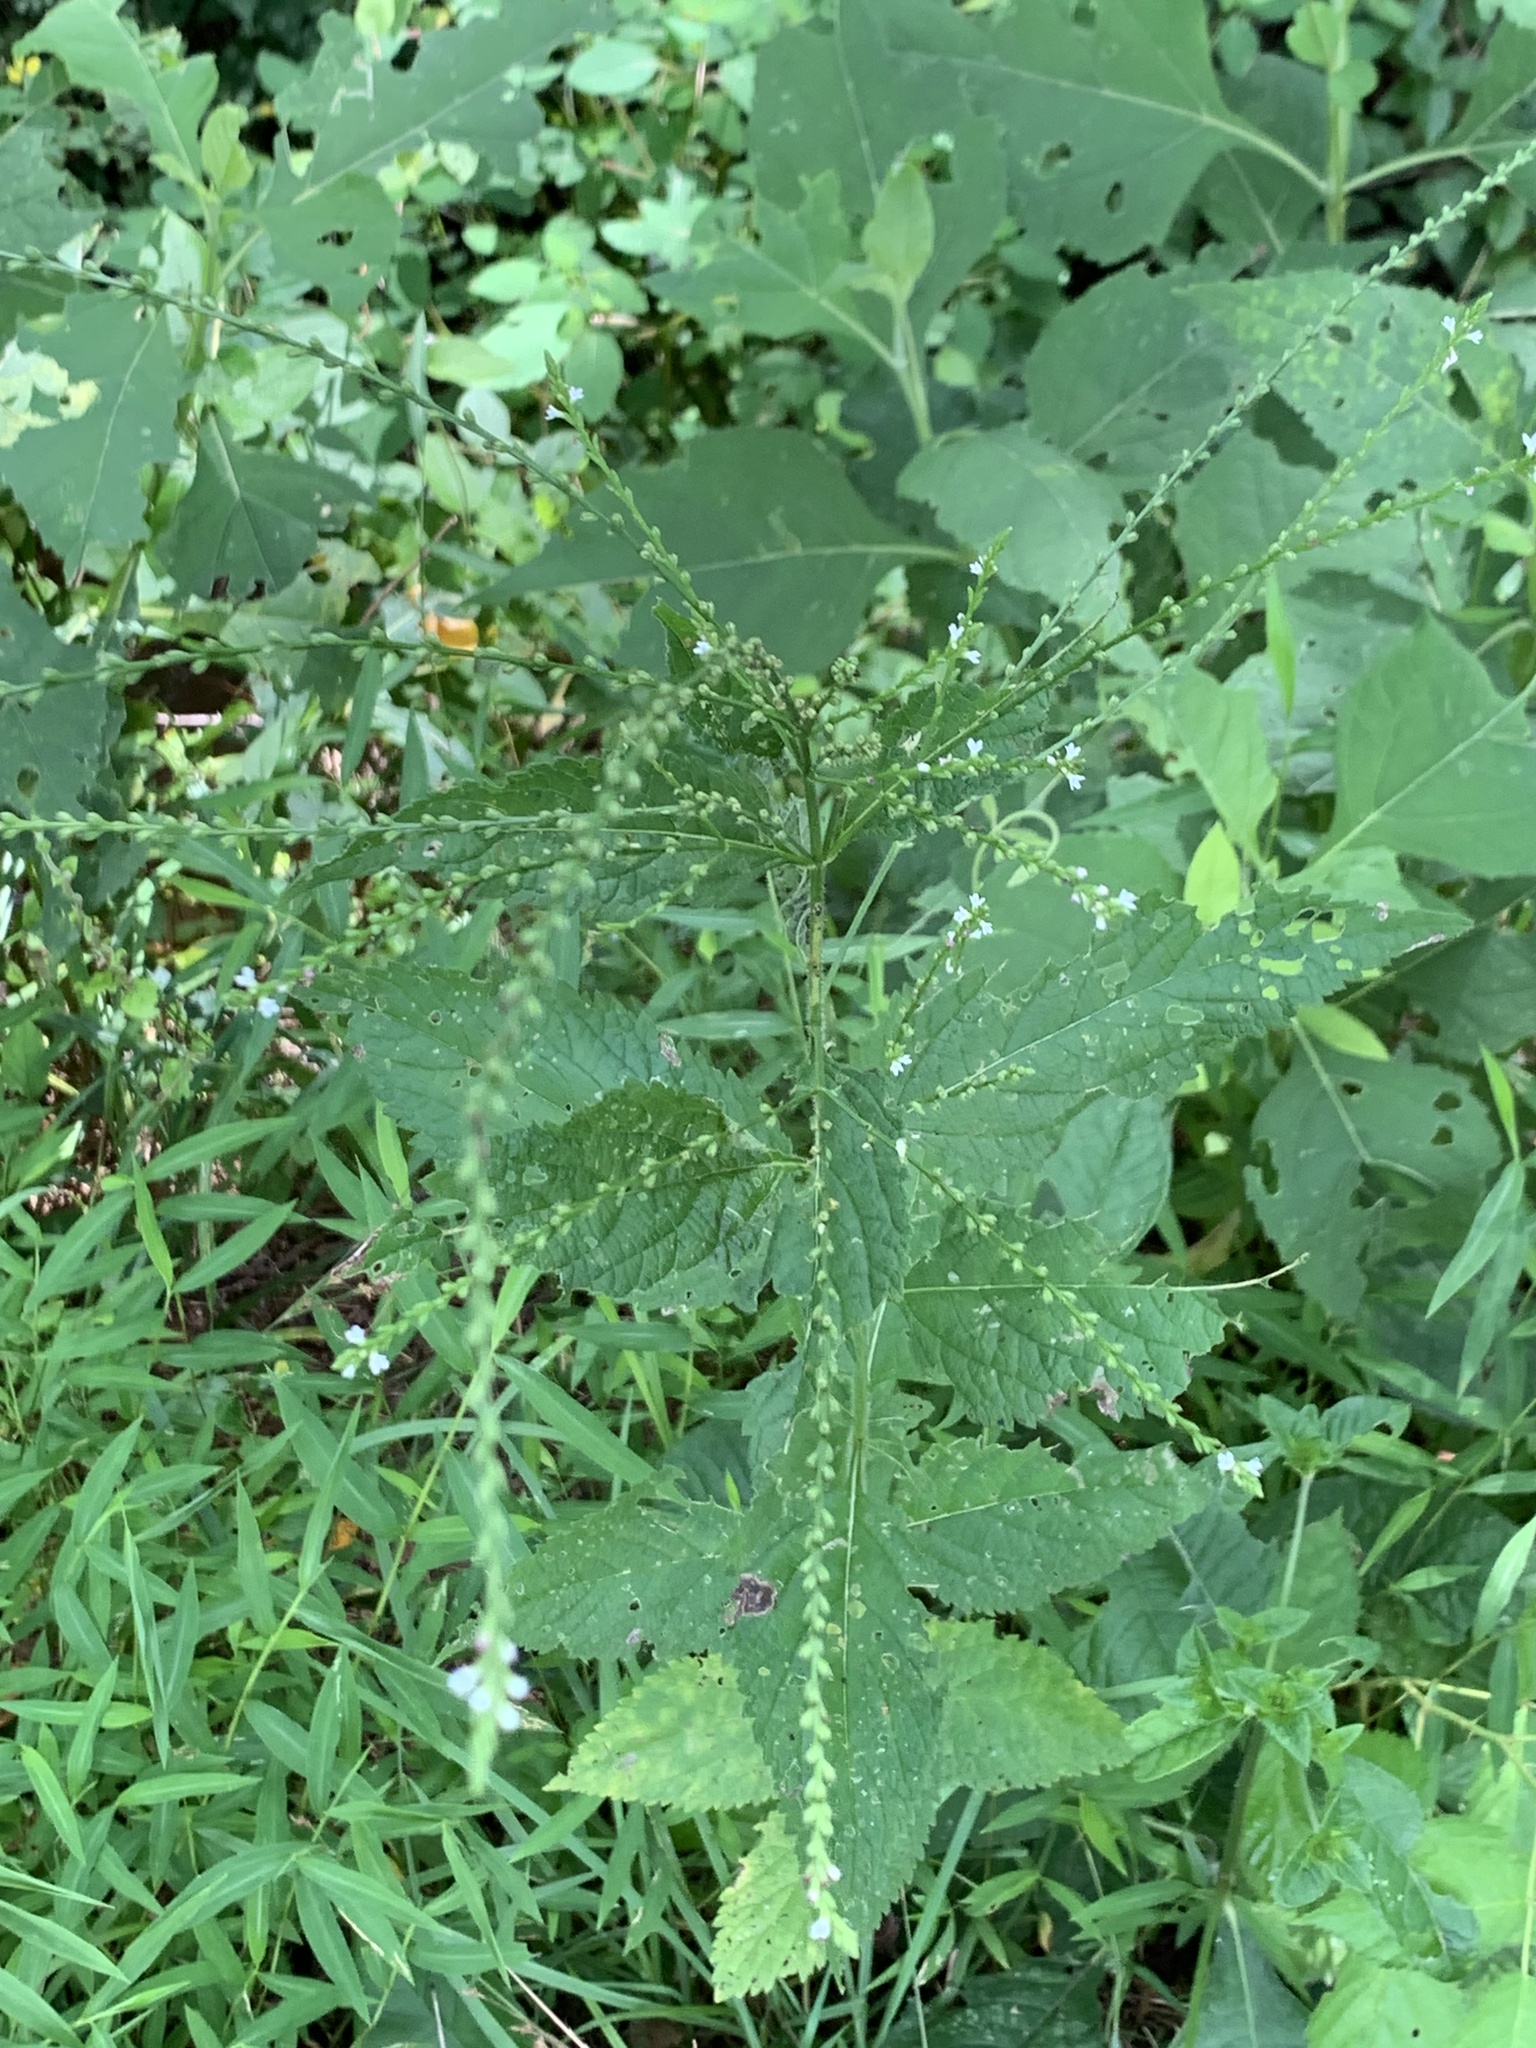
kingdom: Plantae
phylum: Tracheophyta
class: Magnoliopsida
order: Lamiales
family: Verbenaceae
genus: Verbena
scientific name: Verbena urticifolia
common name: Nettle-leaved vervain
